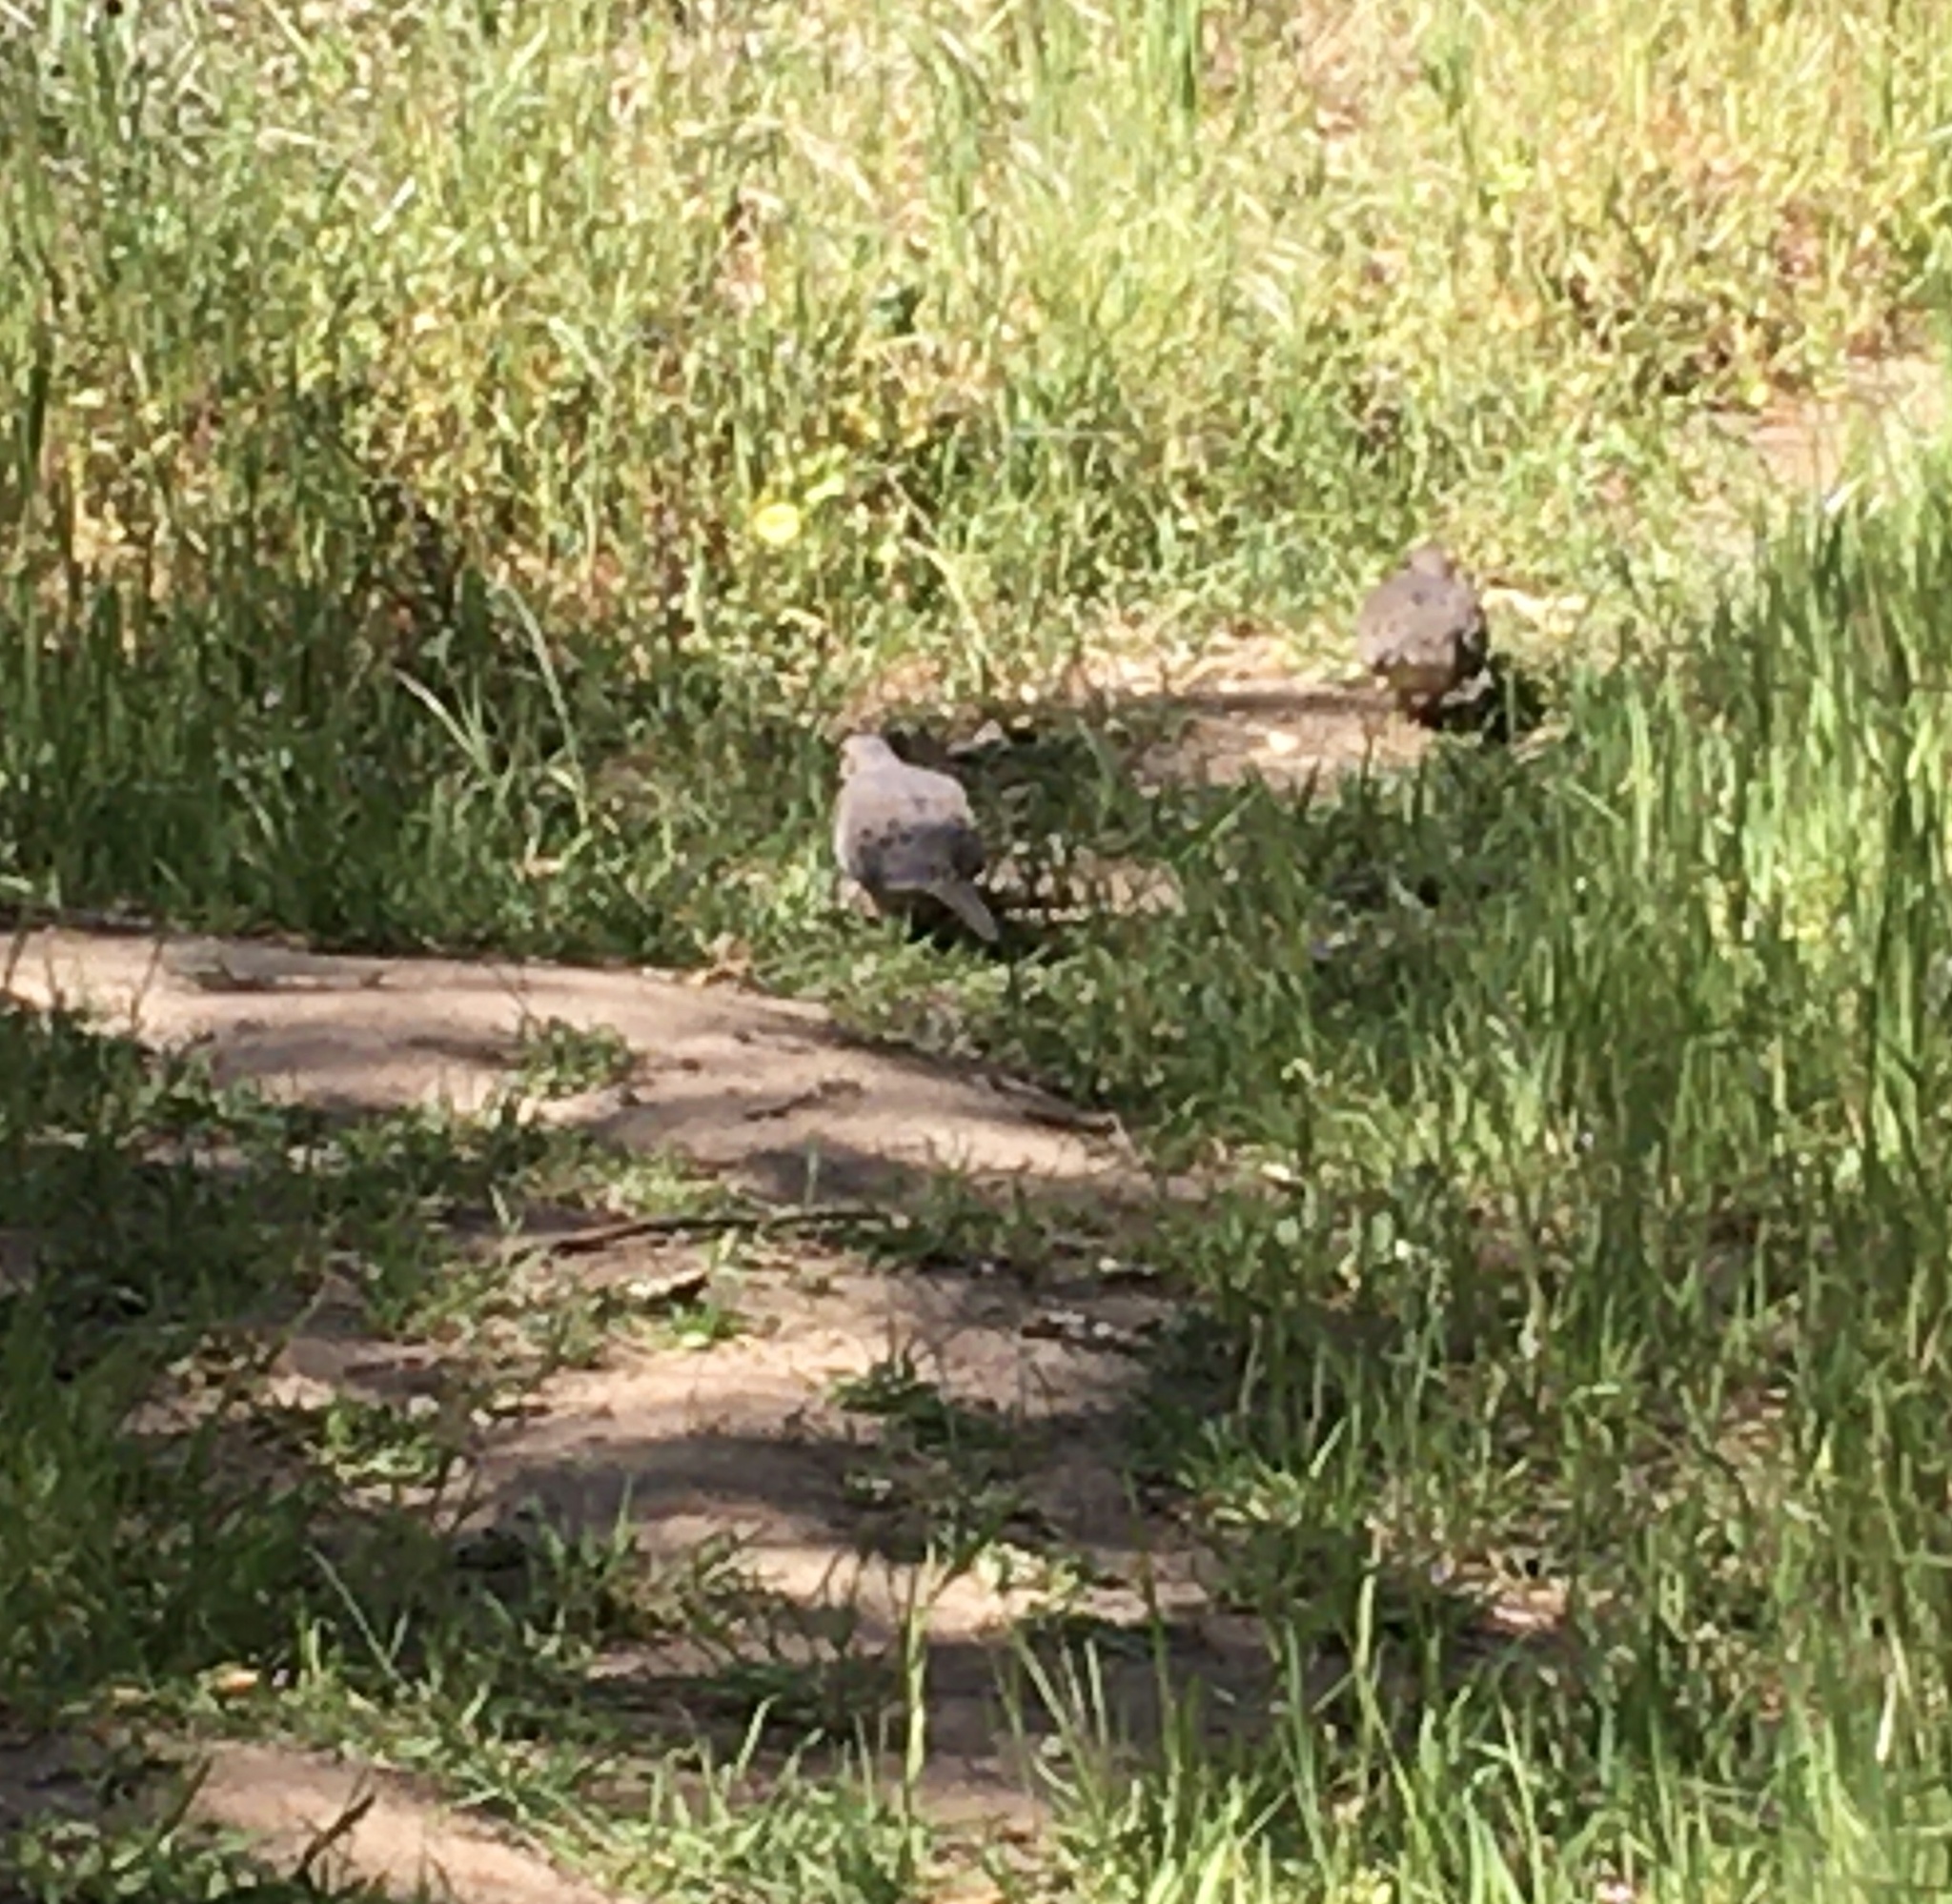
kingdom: Animalia
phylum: Chordata
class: Aves
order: Columbiformes
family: Columbidae
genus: Zenaida
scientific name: Zenaida macroura
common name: Mourning dove
